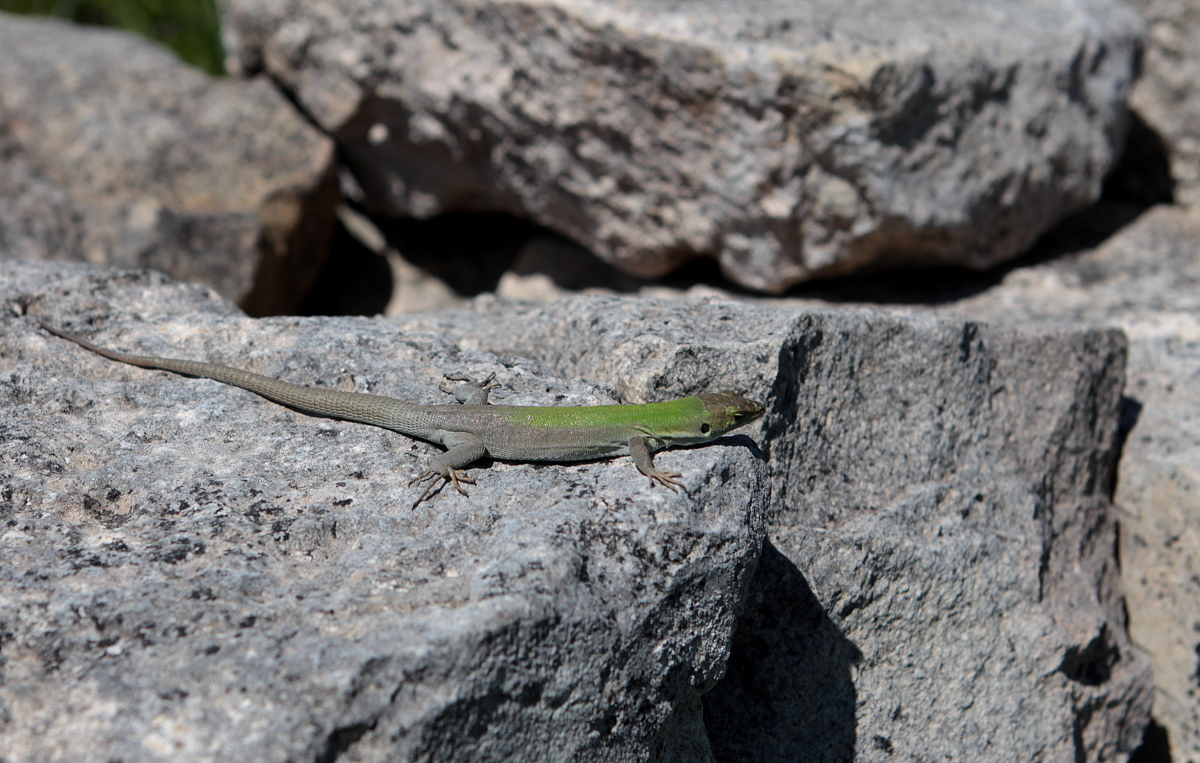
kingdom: Animalia
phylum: Chordata
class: Squamata
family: Lacertidae
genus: Podarcis
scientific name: Podarcis siculus
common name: Italian wall lizard
